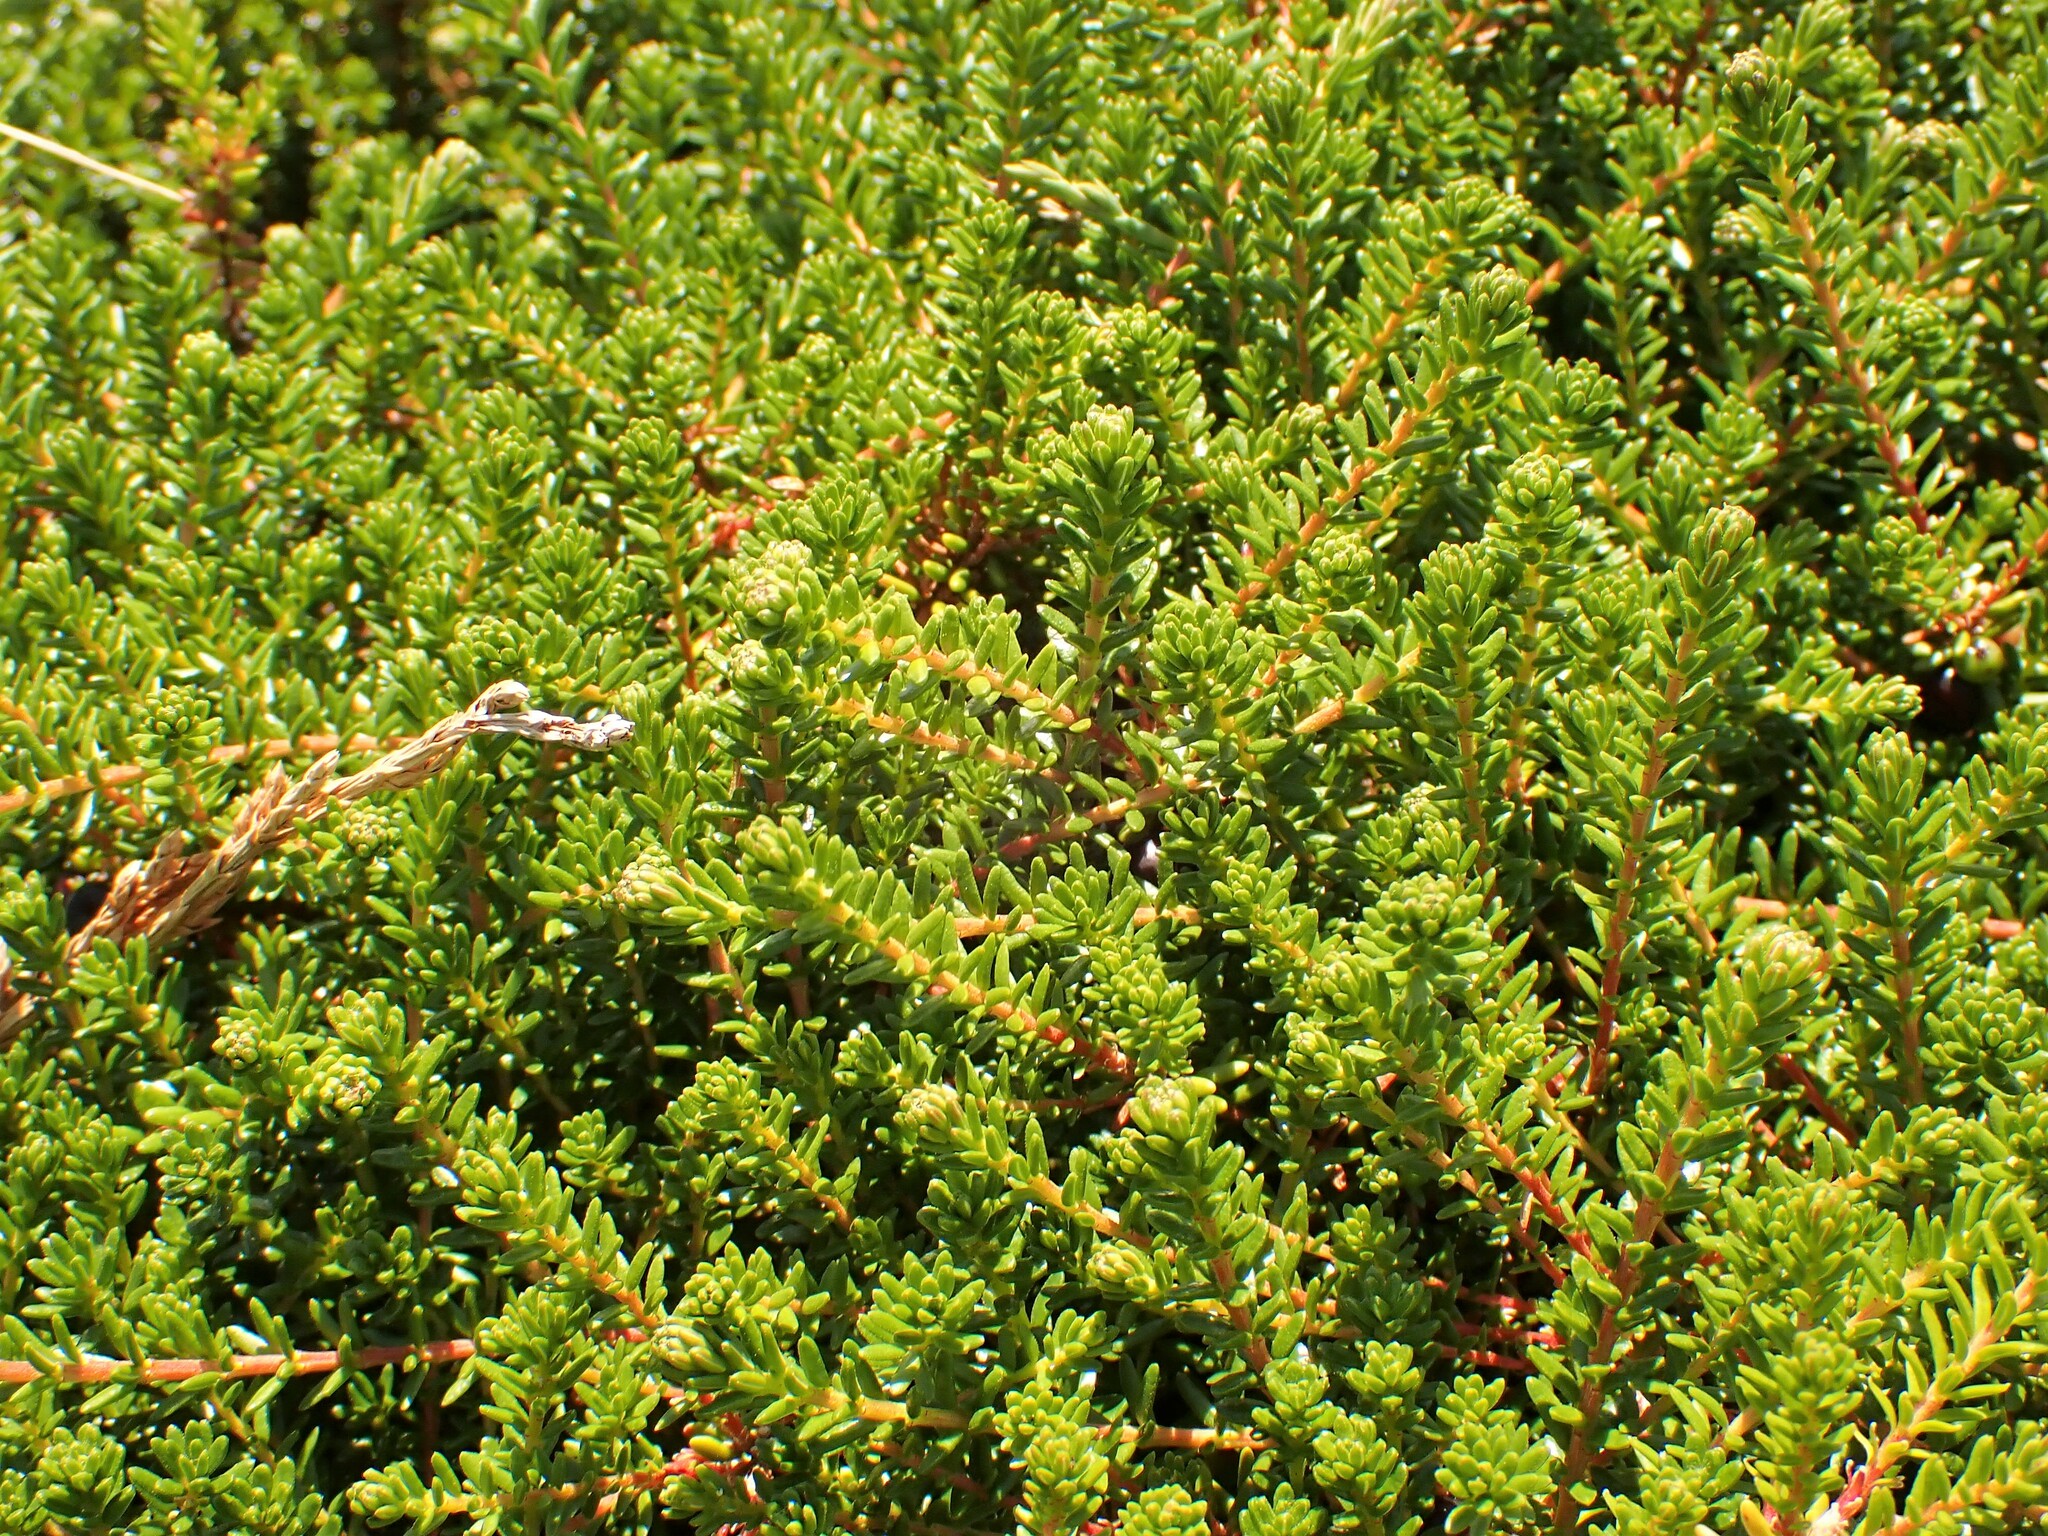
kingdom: Plantae
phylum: Tracheophyta
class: Magnoliopsida
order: Ericales
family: Ericaceae
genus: Empetrum
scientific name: Empetrum nigrum
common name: Black crowberry
